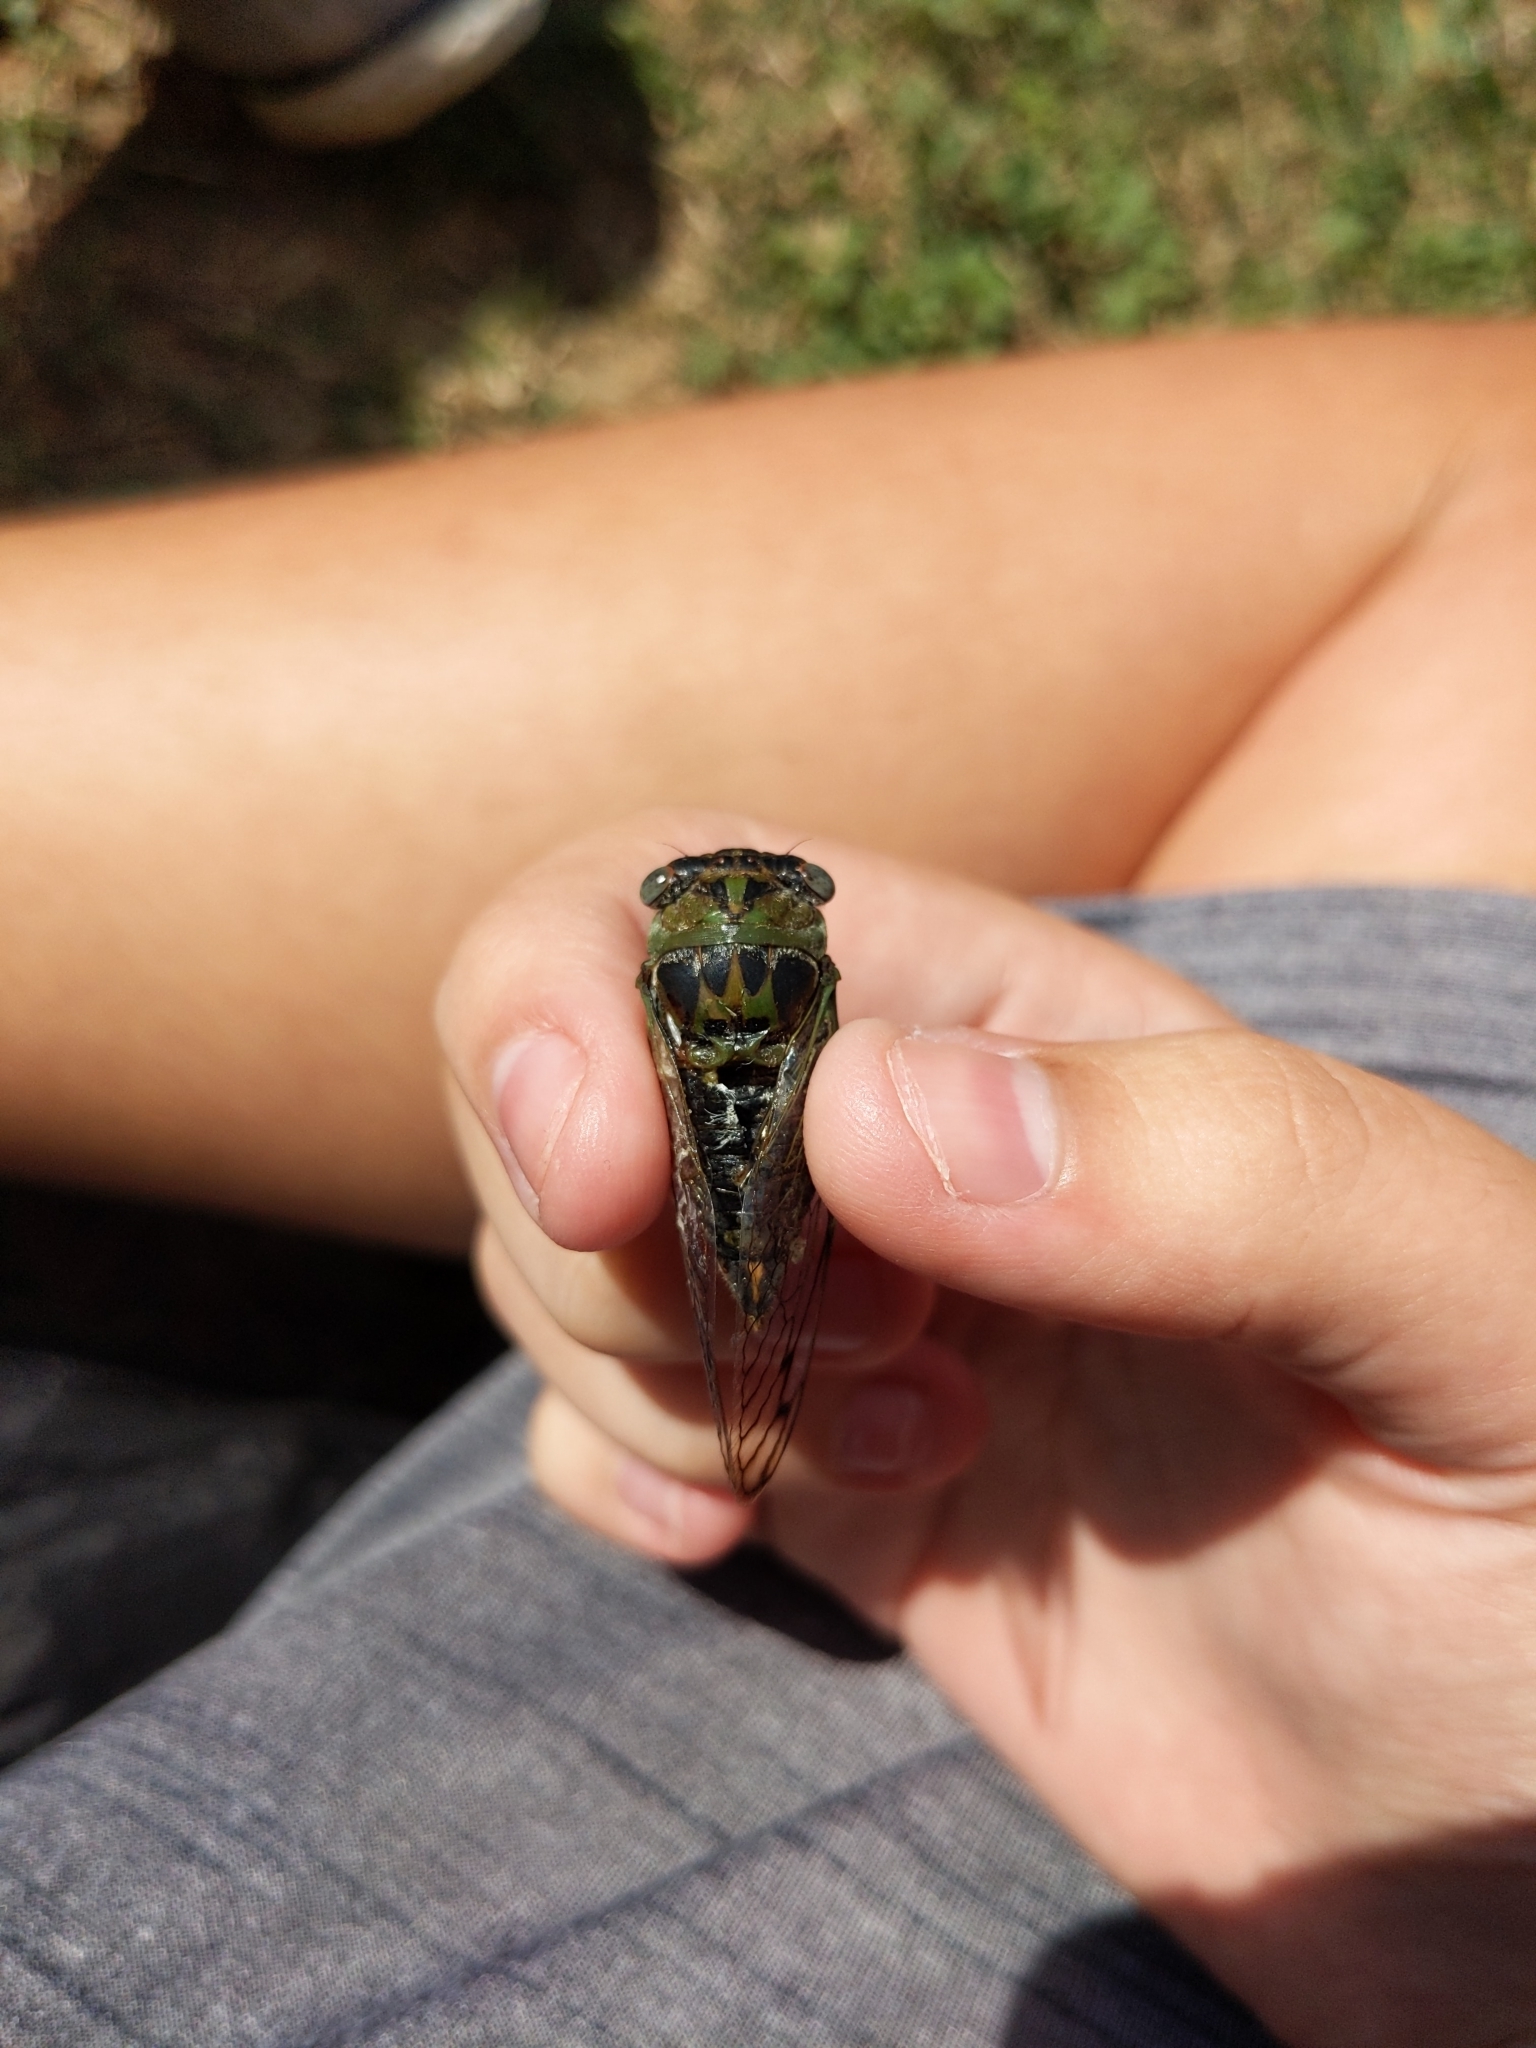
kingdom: Animalia
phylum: Arthropoda
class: Insecta
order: Hemiptera
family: Cicadidae
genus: Neotibicen
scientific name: Neotibicen davisi
